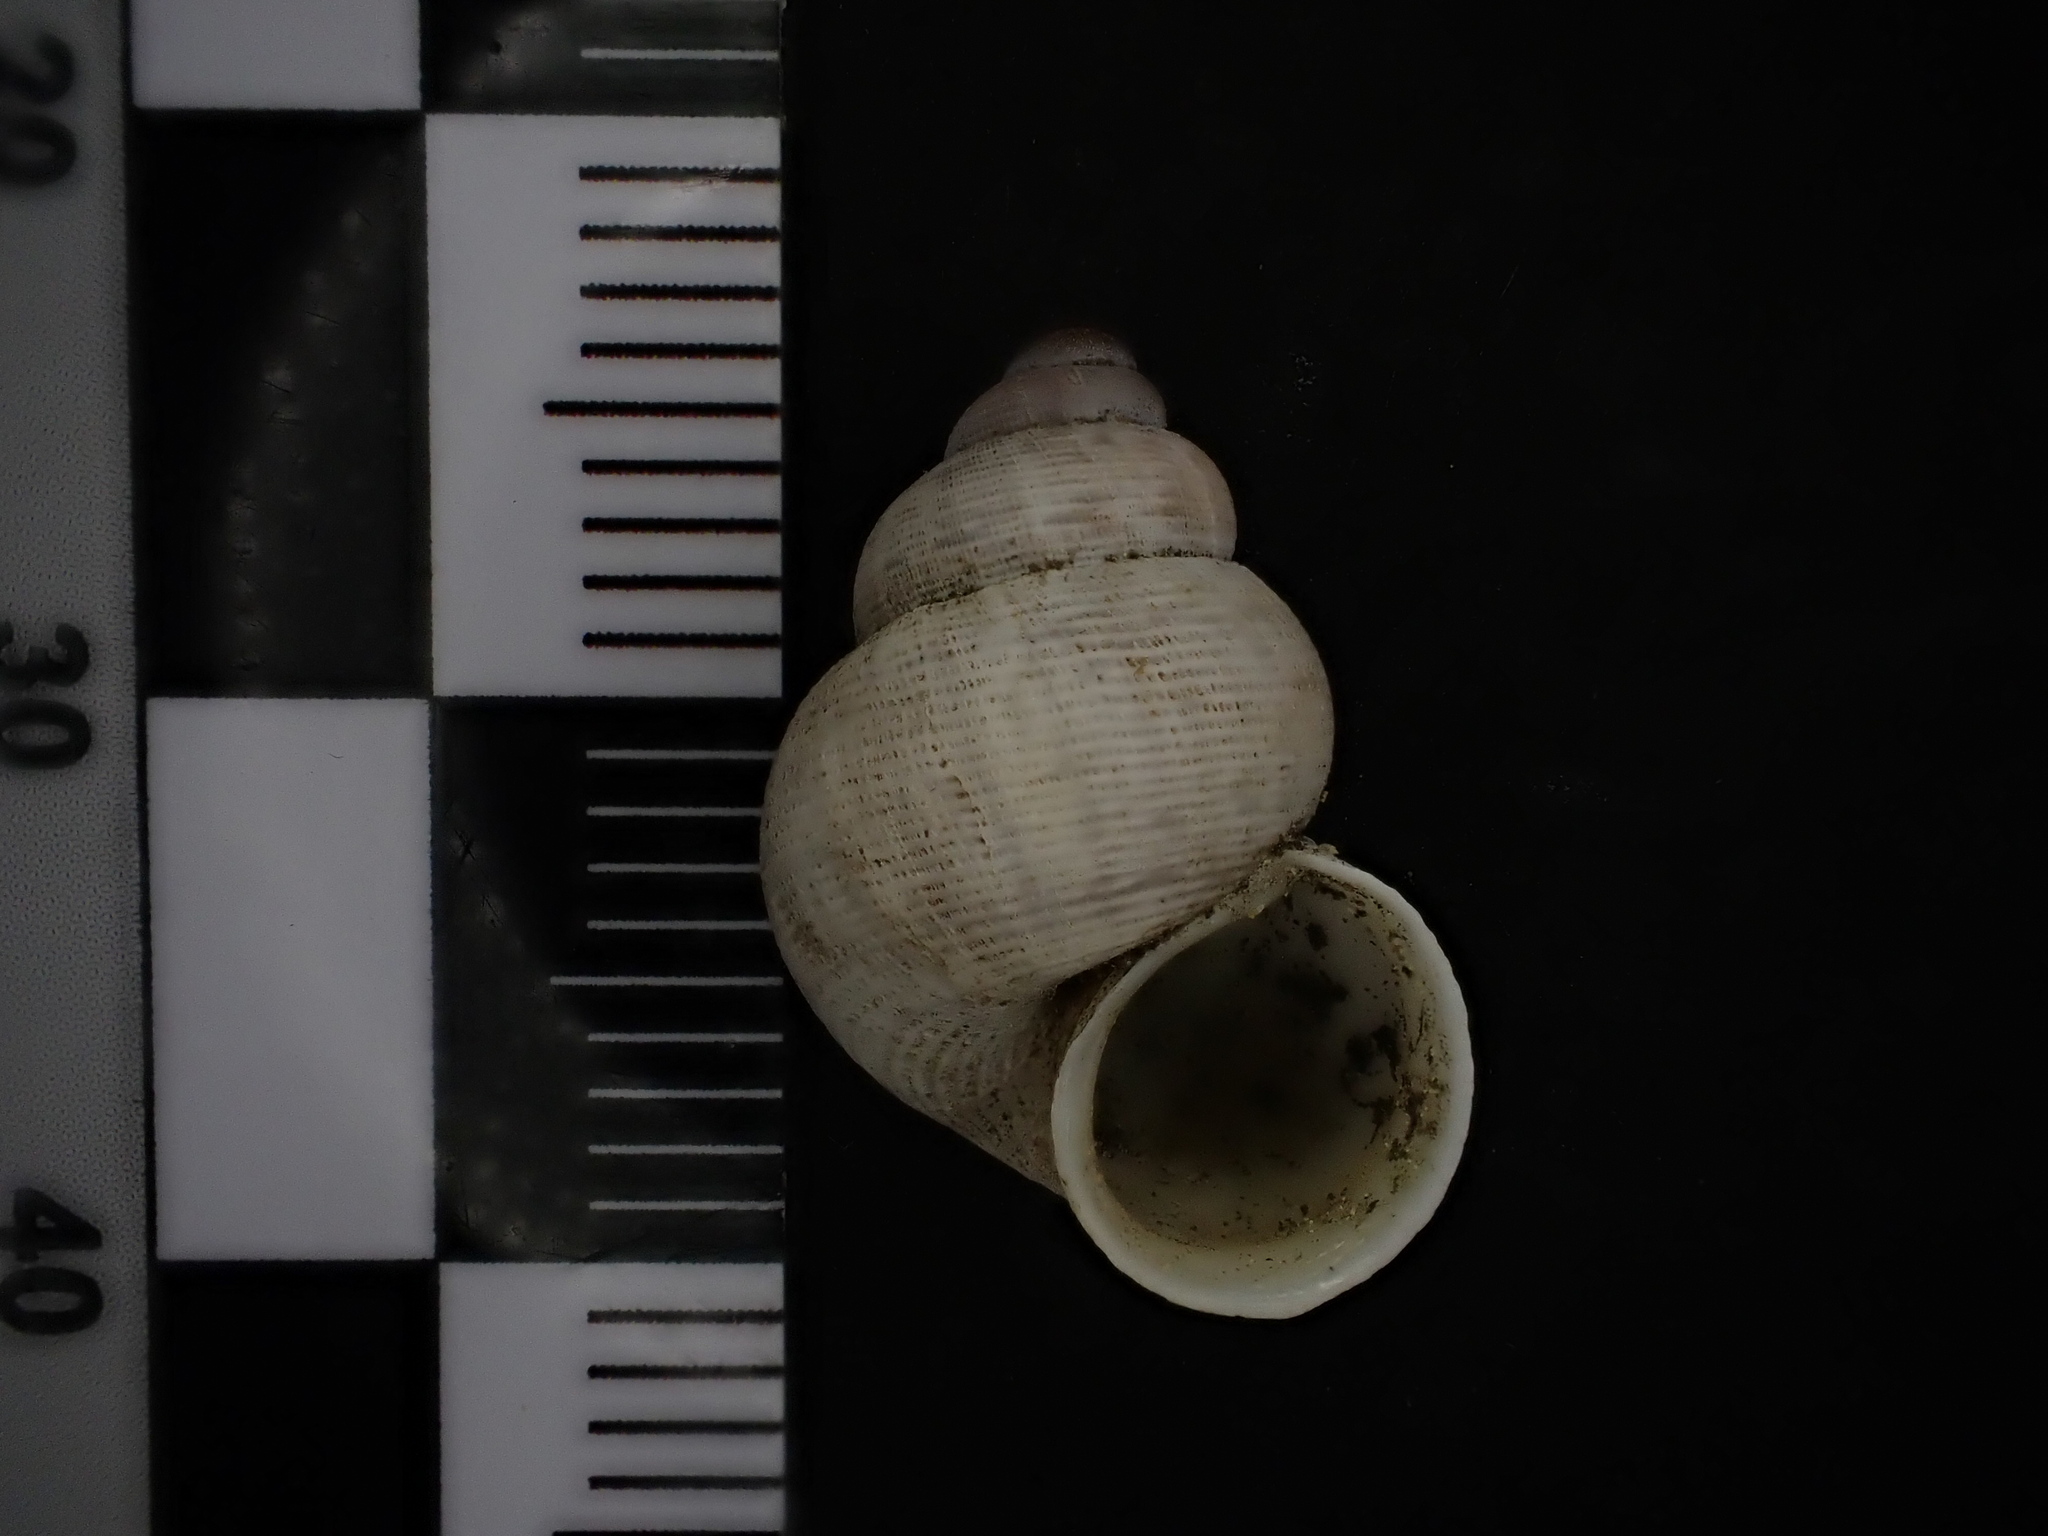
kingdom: Animalia
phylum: Mollusca
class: Gastropoda
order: Littorinimorpha
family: Pomatiidae
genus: Pomatias
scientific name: Pomatias elegans
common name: Red-mouthed snail
